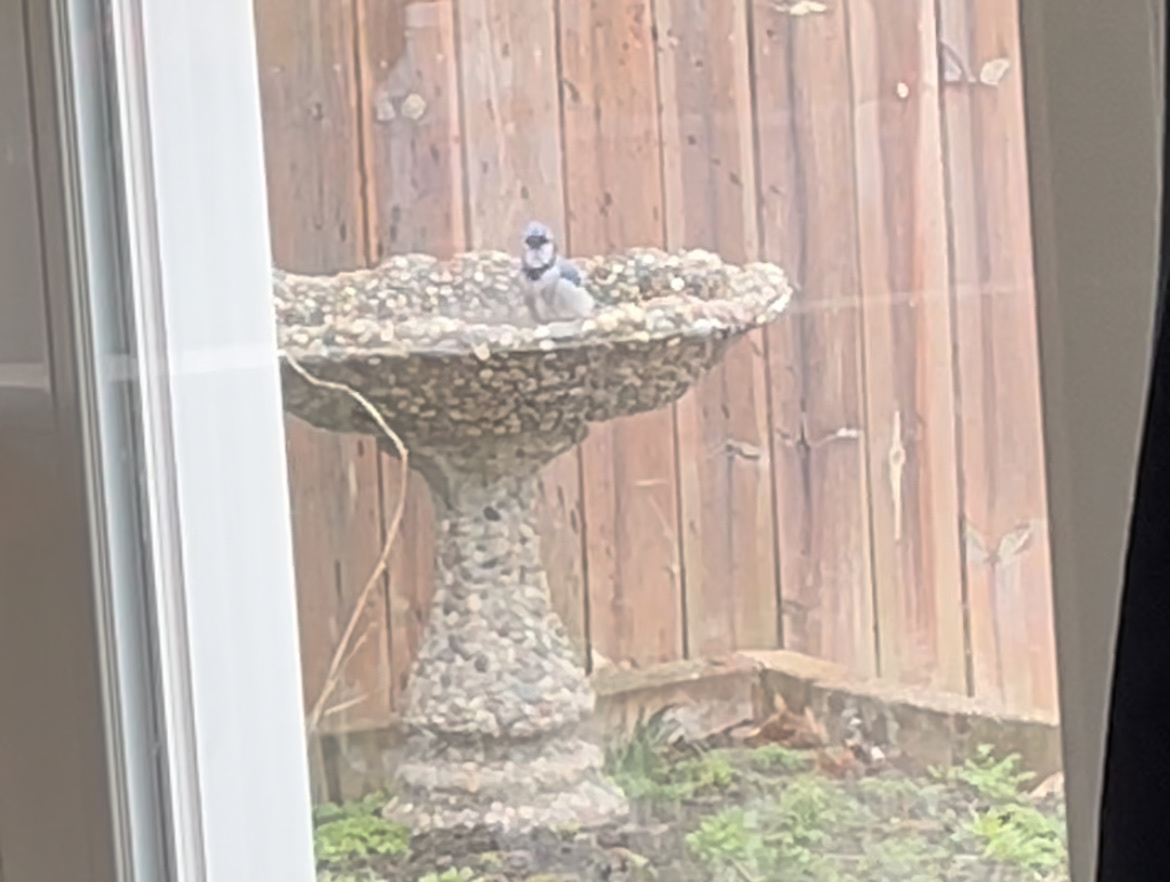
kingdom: Animalia
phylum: Chordata
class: Aves
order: Passeriformes
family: Corvidae
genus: Cyanocitta
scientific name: Cyanocitta cristata
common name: Blue jay
